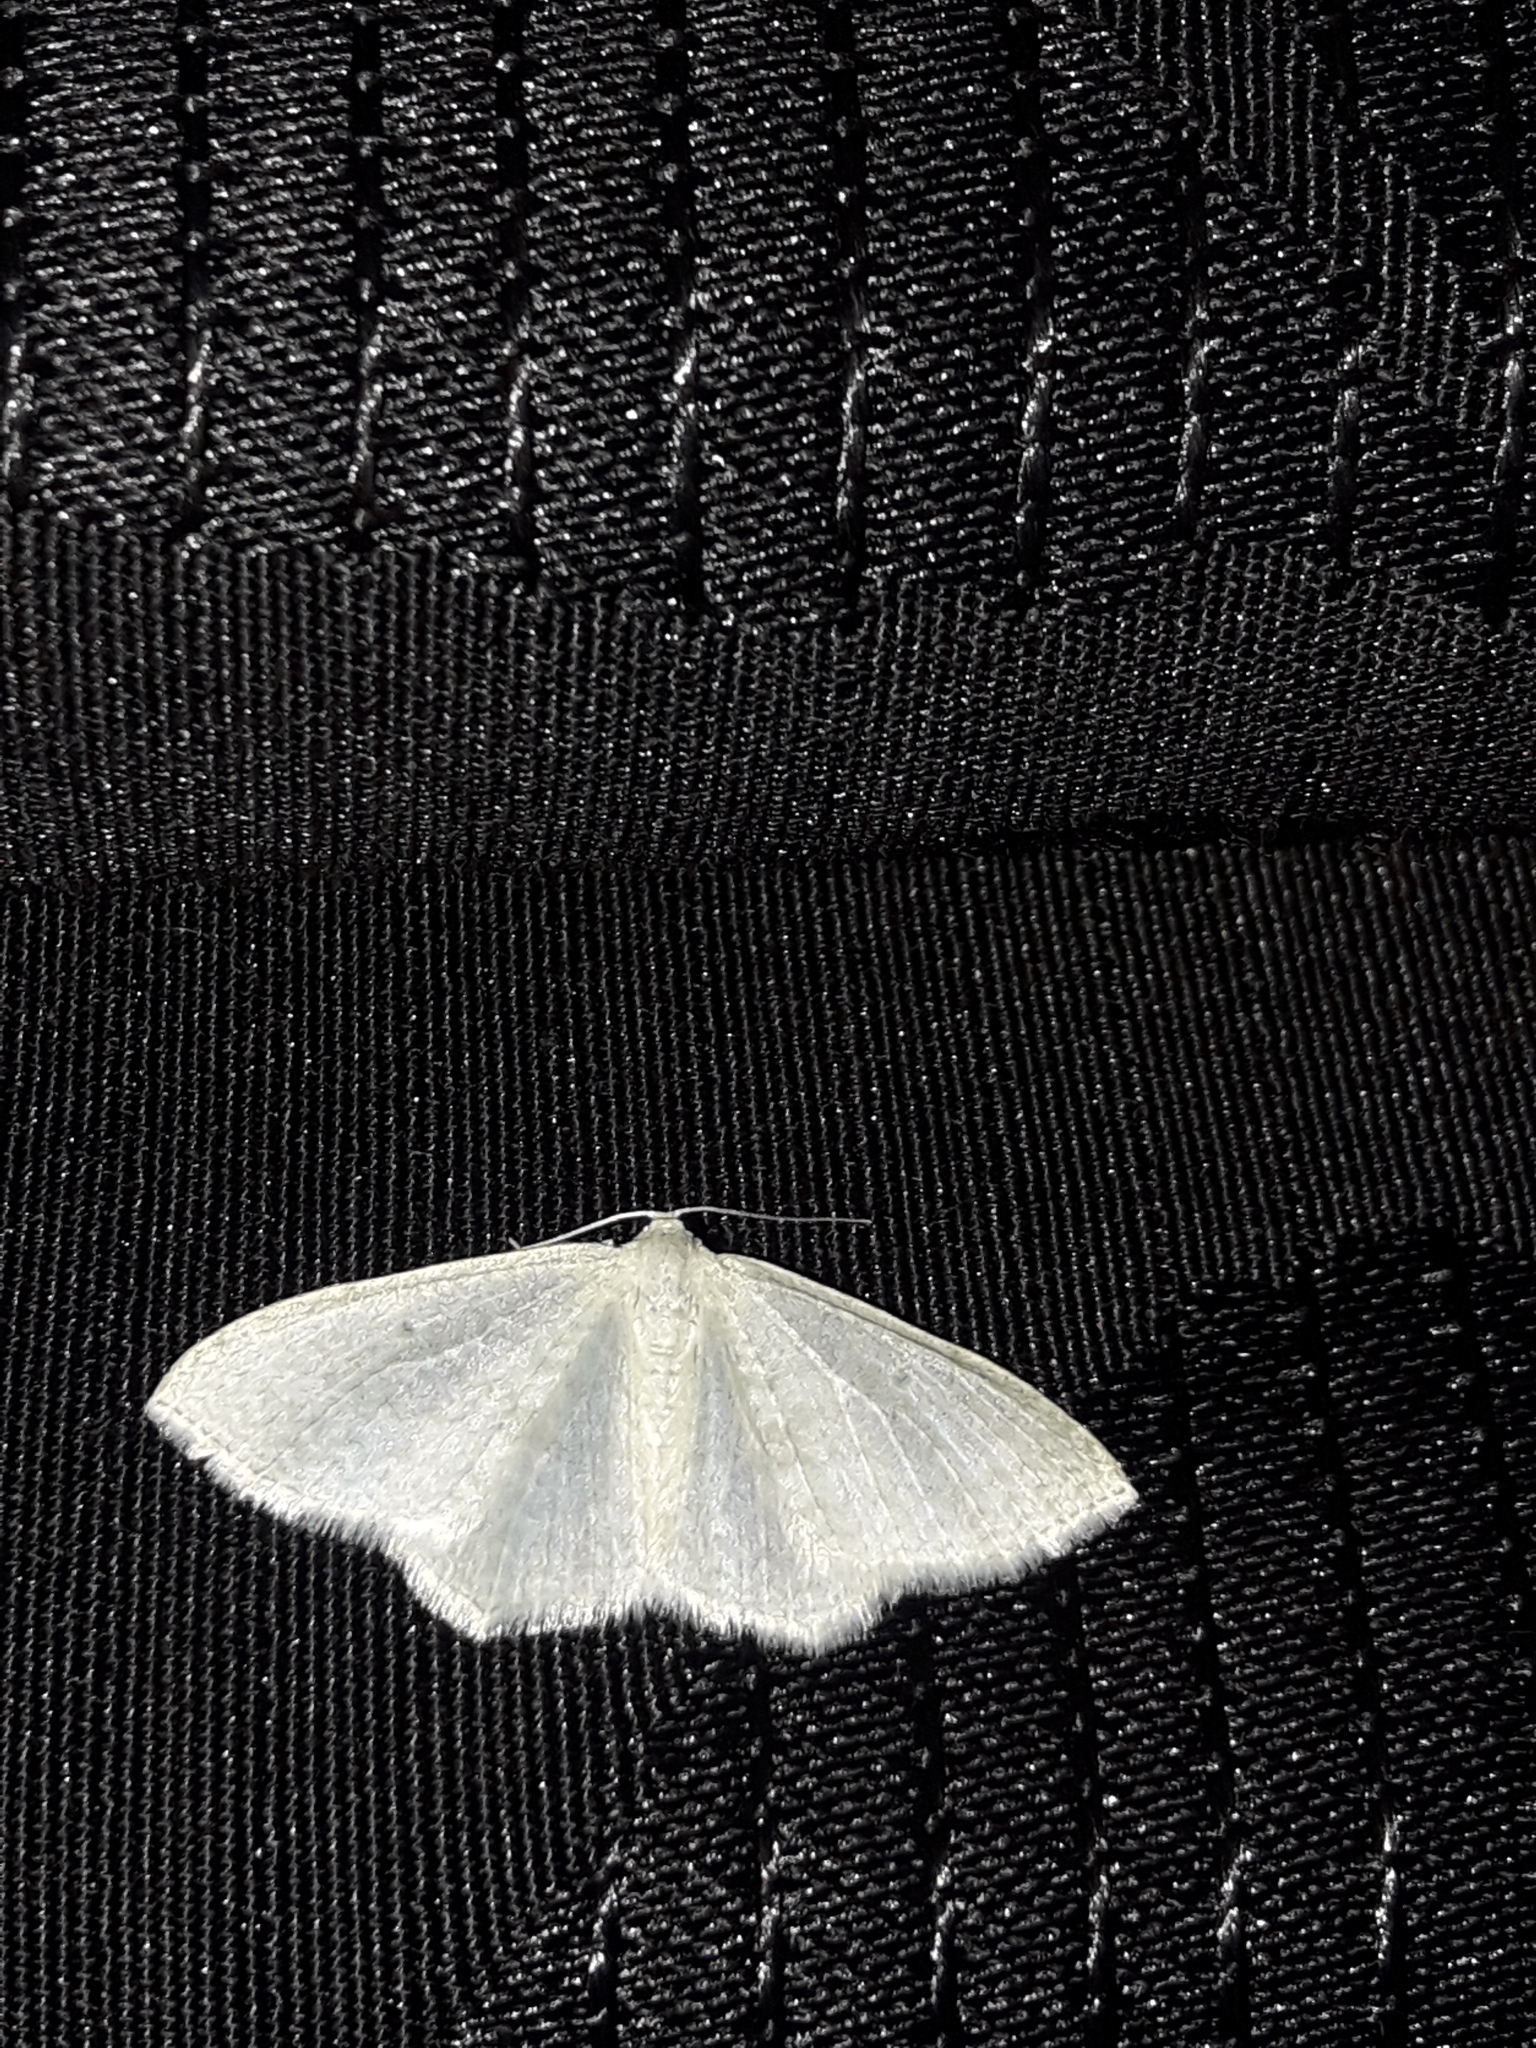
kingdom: Animalia
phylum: Arthropoda
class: Insecta
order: Lepidoptera
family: Geometridae
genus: Poecilasthena
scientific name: Poecilasthena pulchraria
